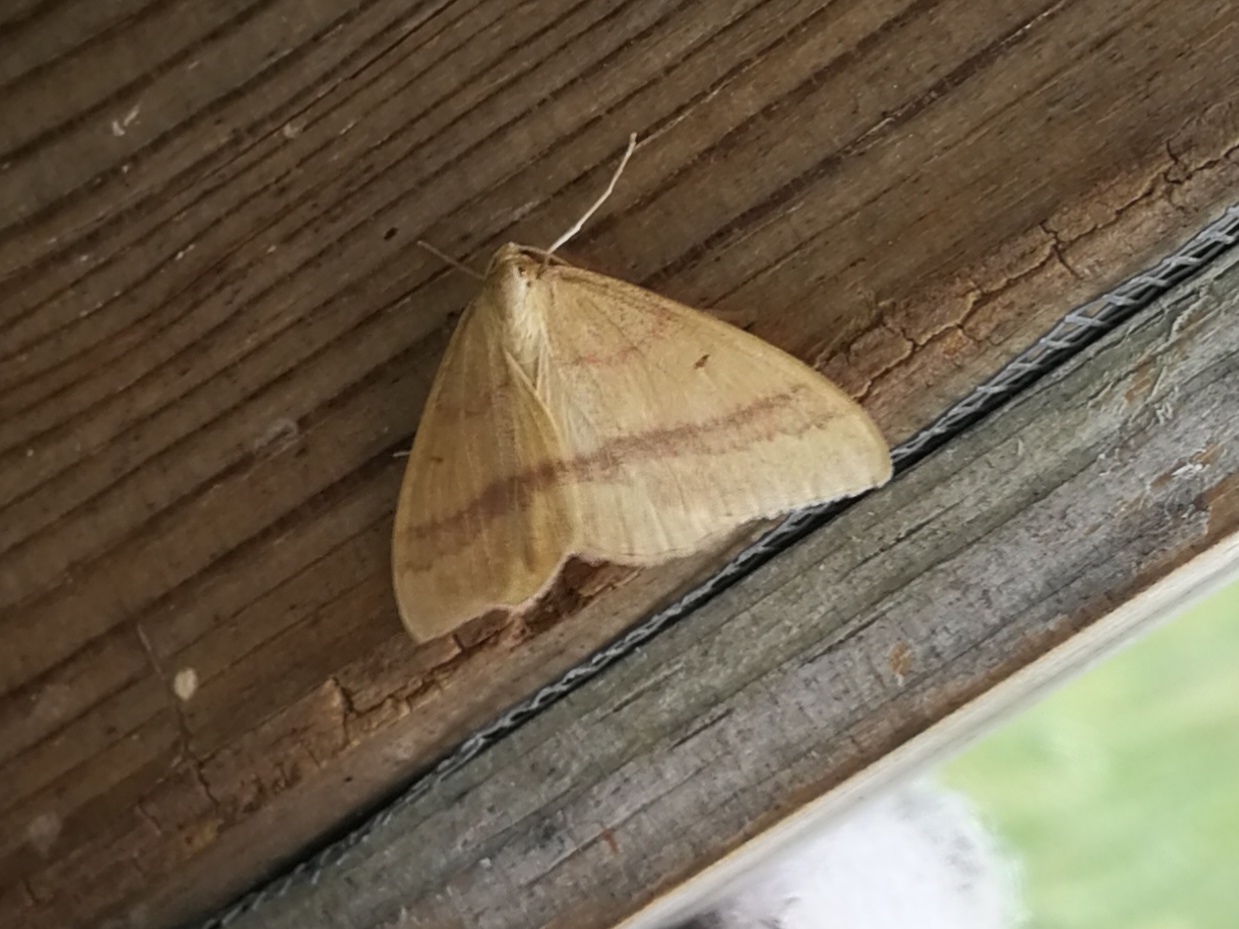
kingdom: Animalia
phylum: Arthropoda
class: Insecta
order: Lepidoptera
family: Geometridae
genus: Rhodostrophia
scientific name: Rhodostrophia calabra
